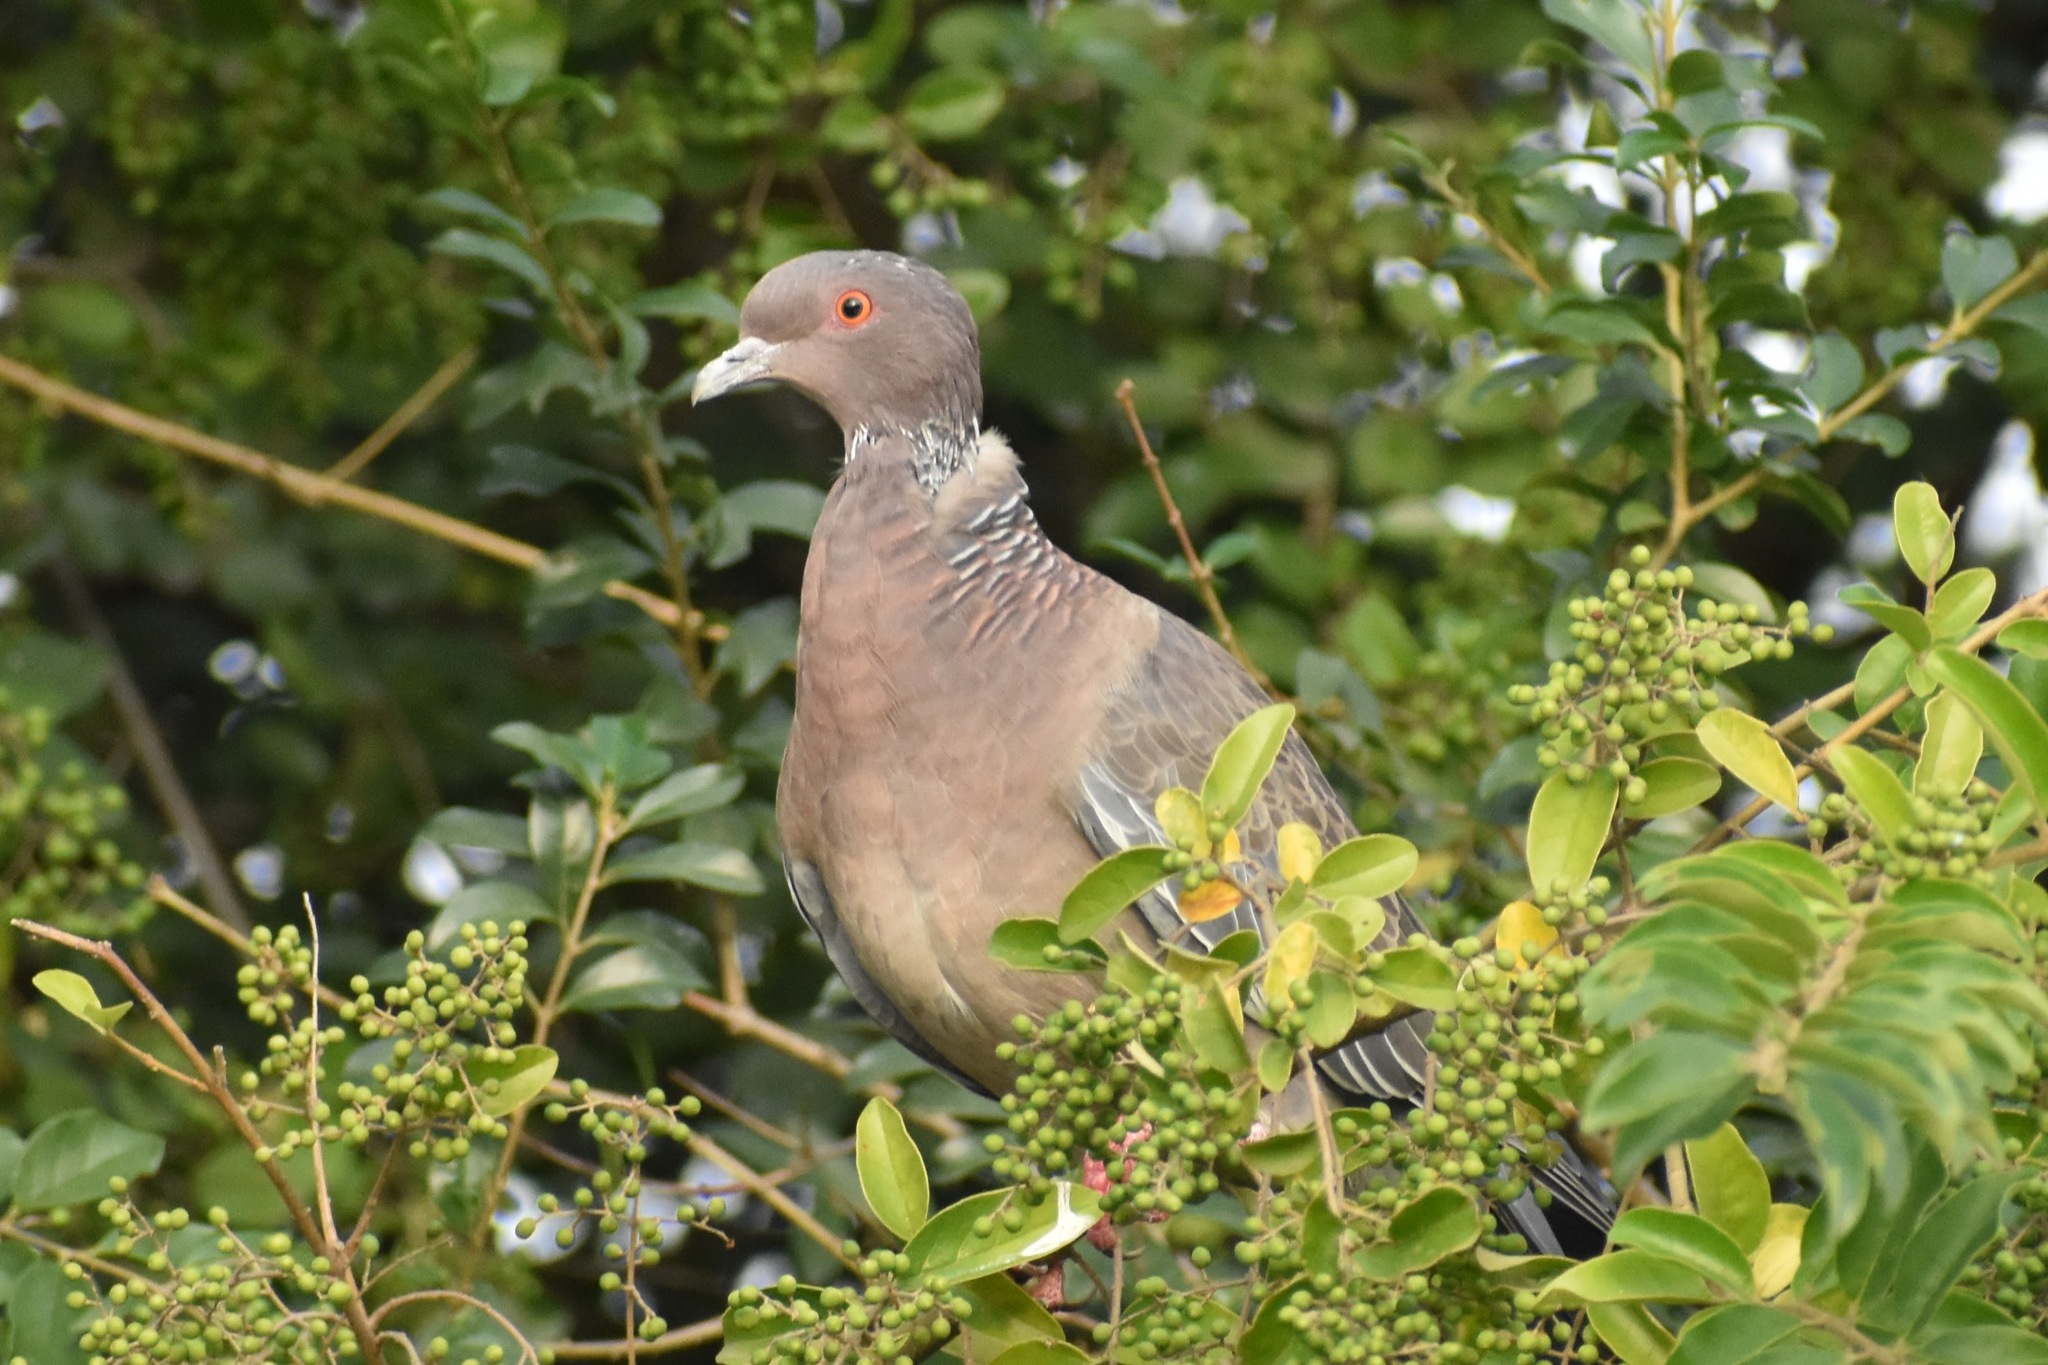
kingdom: Animalia
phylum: Chordata
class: Aves
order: Columbiformes
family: Columbidae
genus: Patagioenas
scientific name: Patagioenas picazuro
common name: Picazuro pigeon
